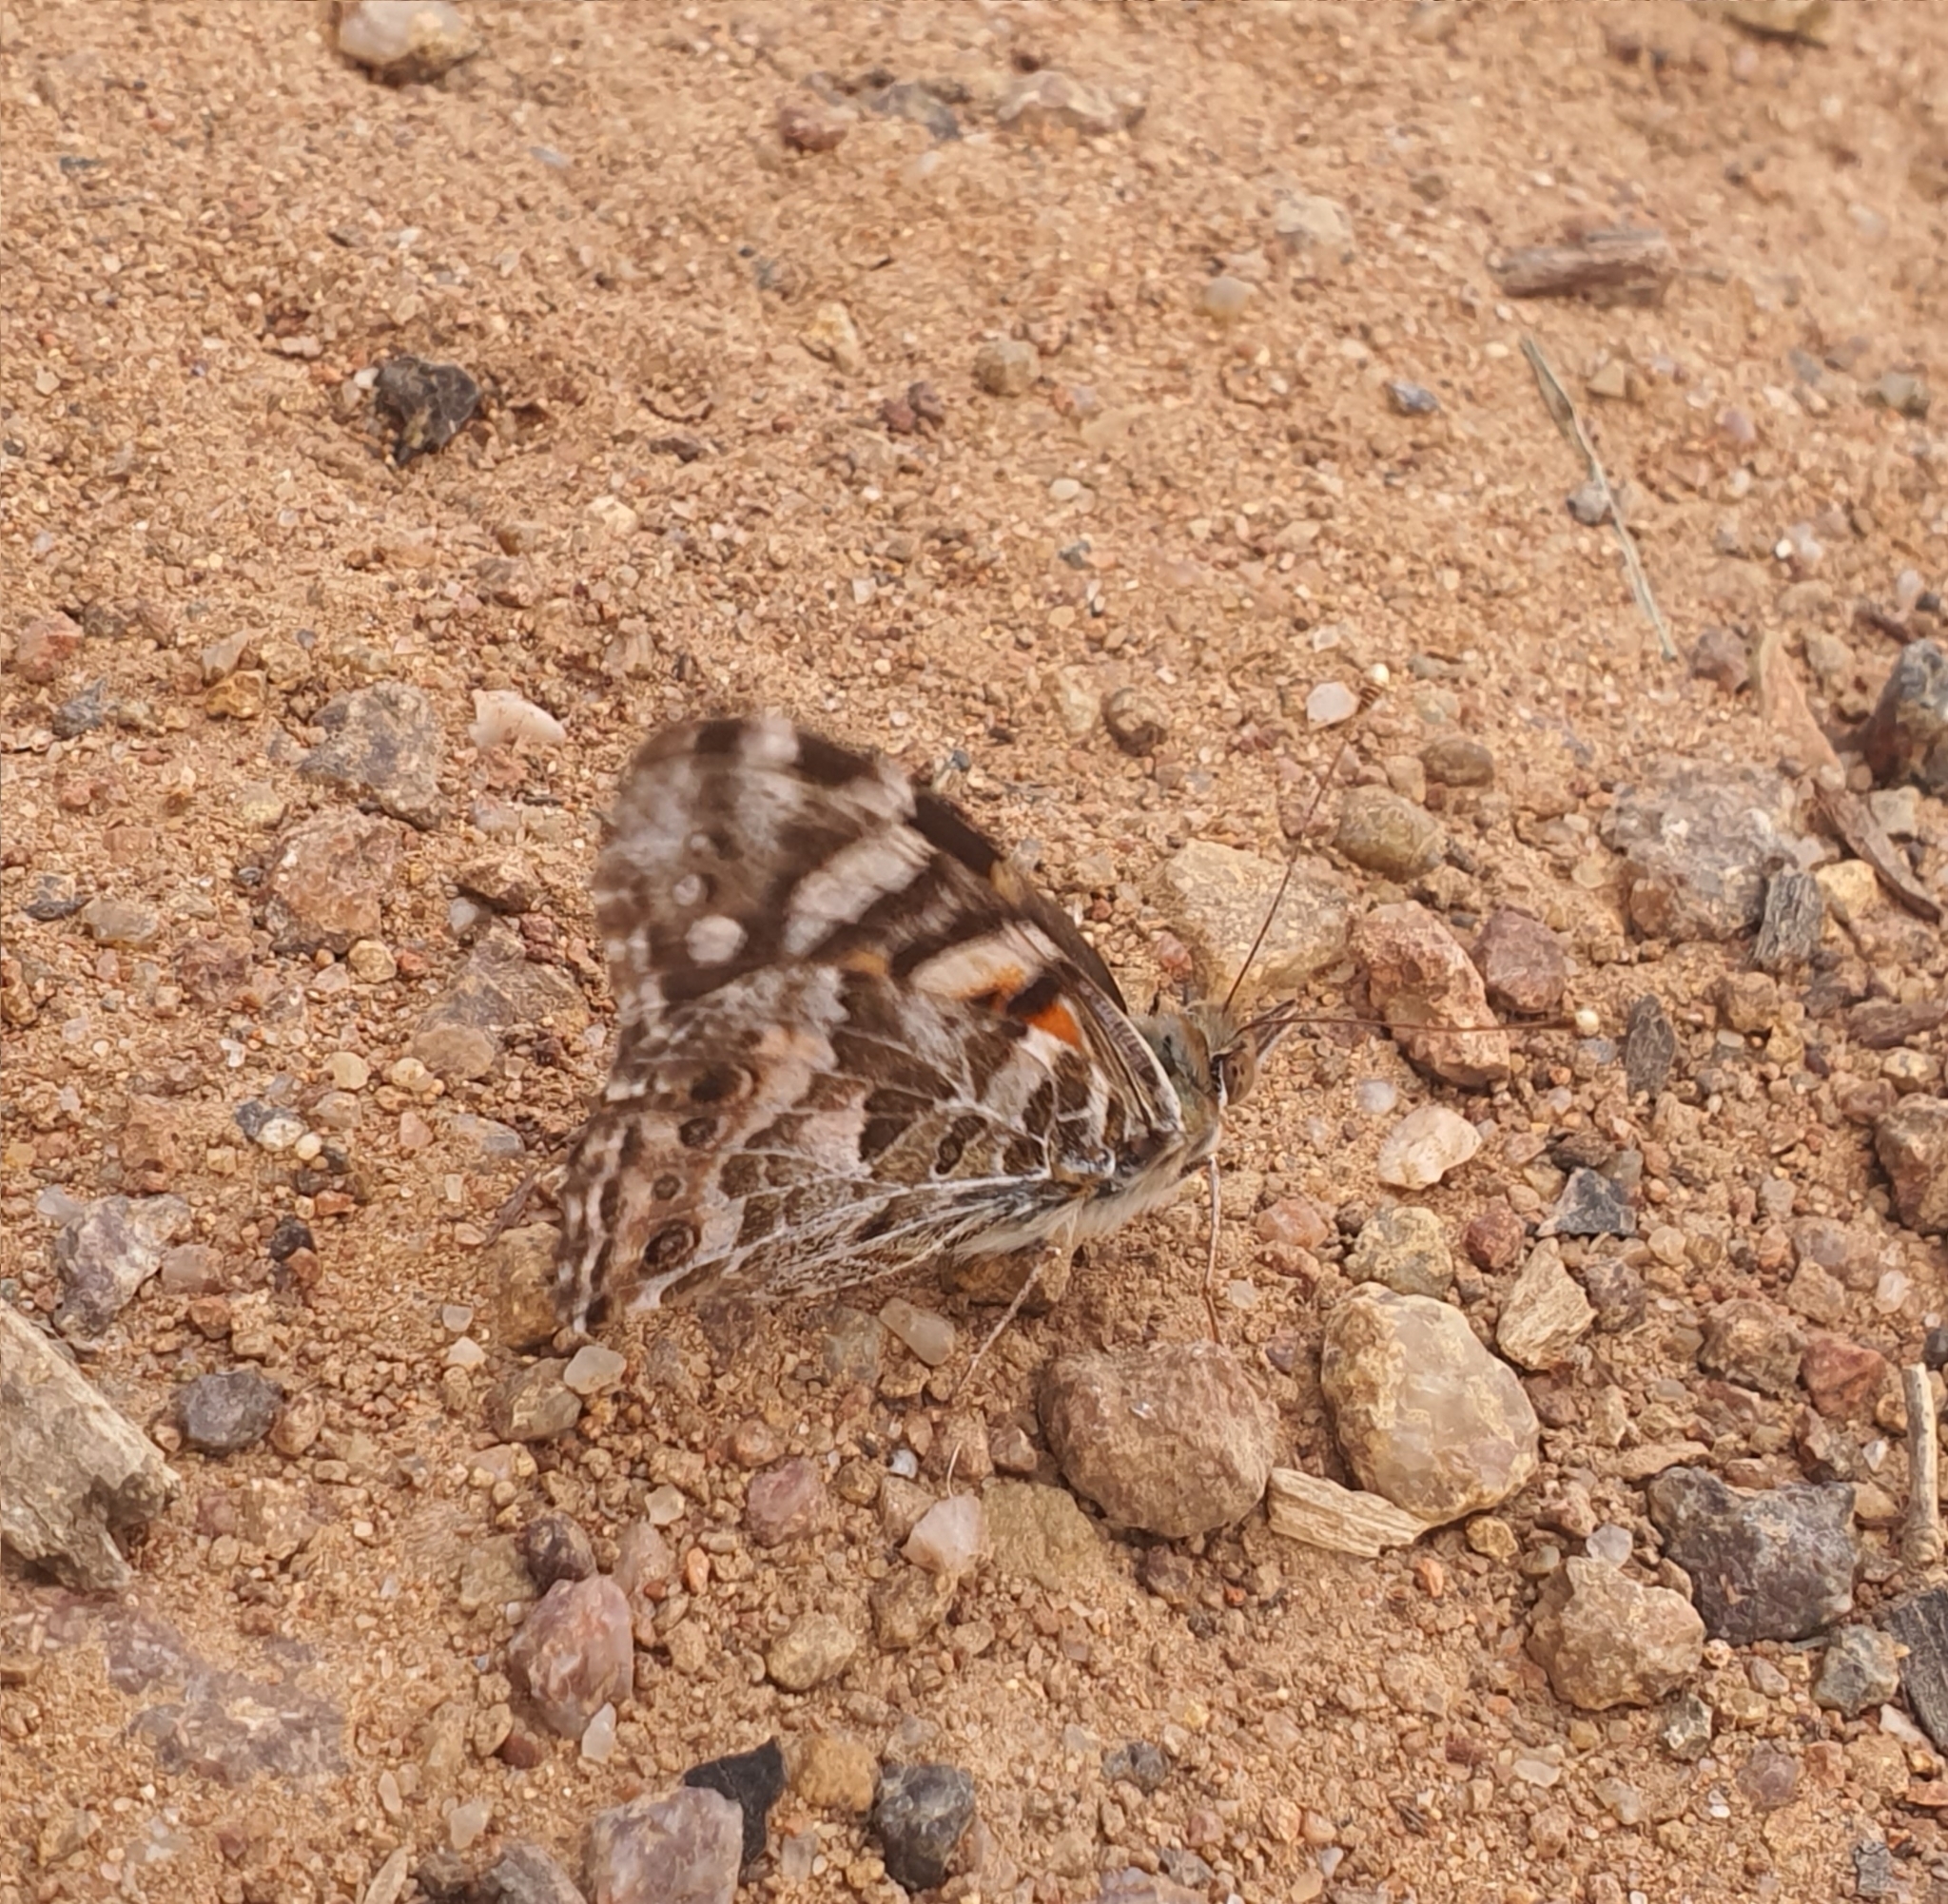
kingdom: Animalia
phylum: Arthropoda
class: Insecta
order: Lepidoptera
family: Nymphalidae
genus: Vanessa
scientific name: Vanessa kershawi
